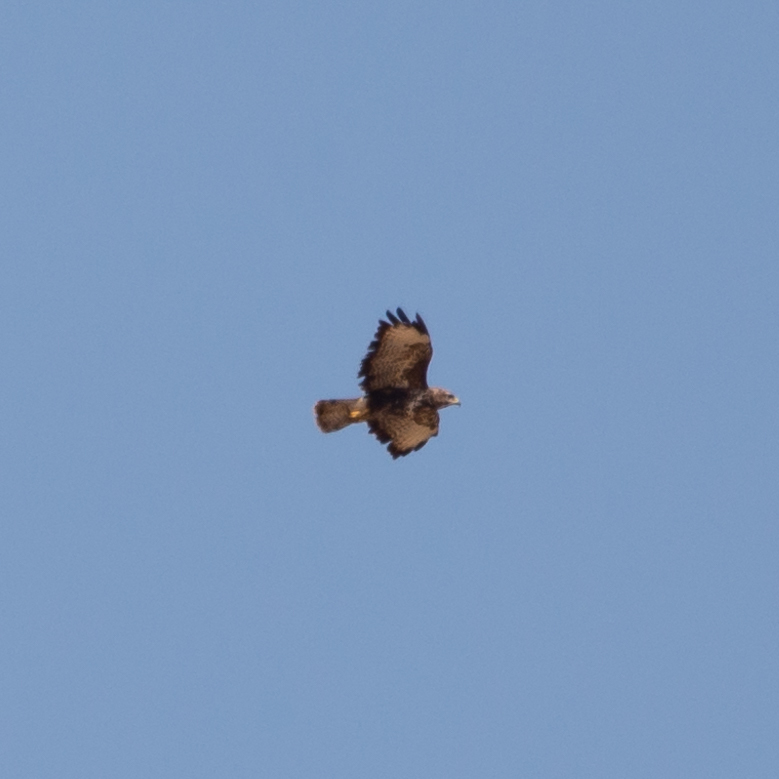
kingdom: Animalia
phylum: Chordata
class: Aves
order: Accipitriformes
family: Accipitridae
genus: Buteo
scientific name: Buteo buteo
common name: Common buzzard
